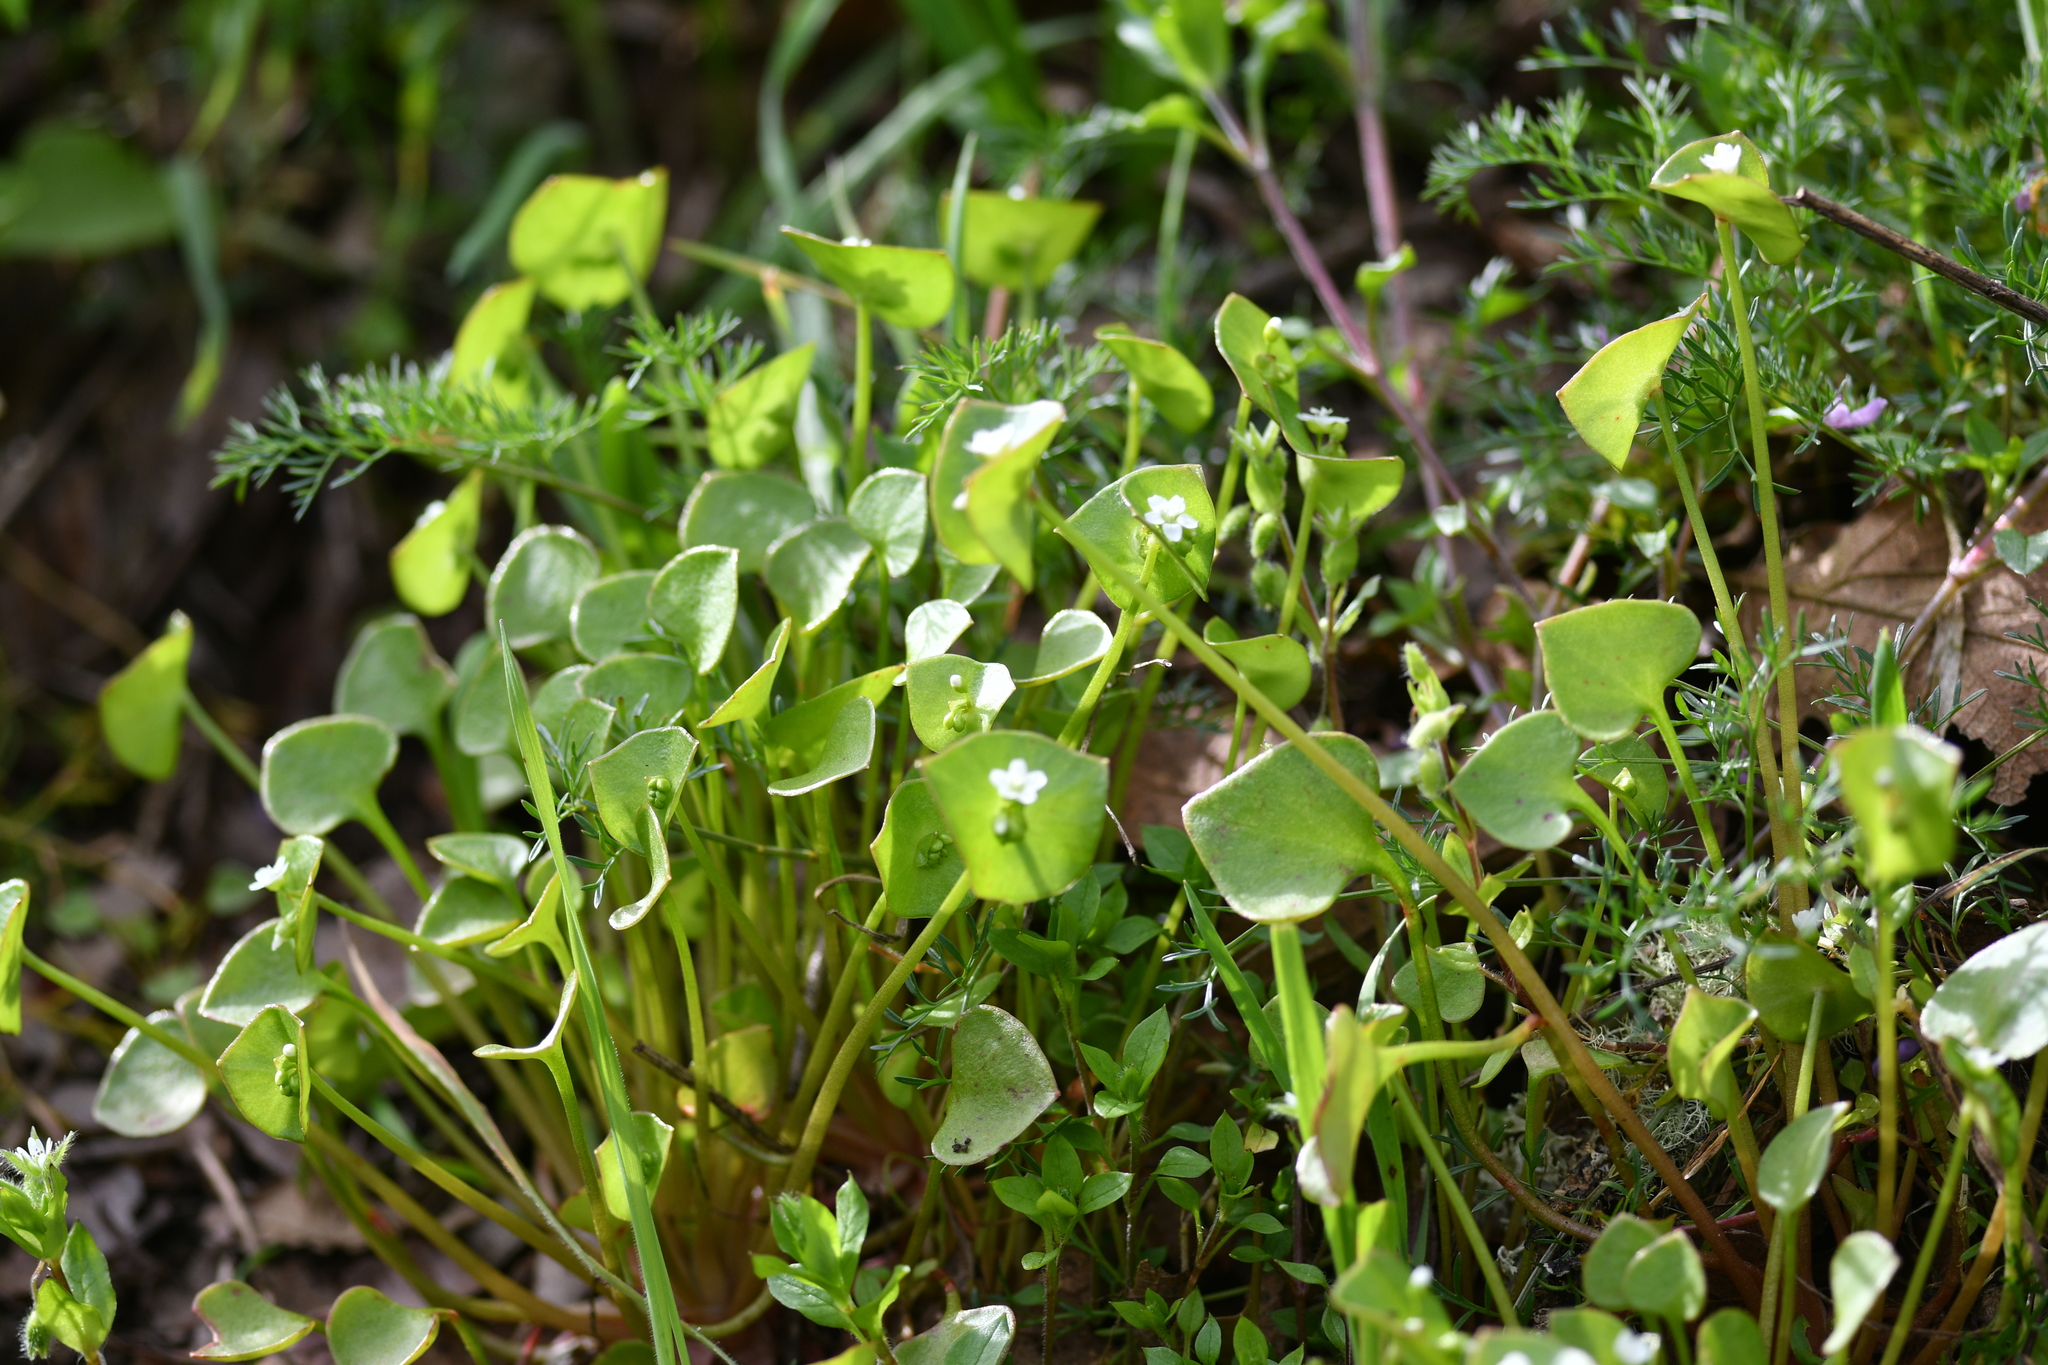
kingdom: Plantae
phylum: Tracheophyta
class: Magnoliopsida
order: Caryophyllales
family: Montiaceae
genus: Claytonia
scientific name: Claytonia perfoliata
